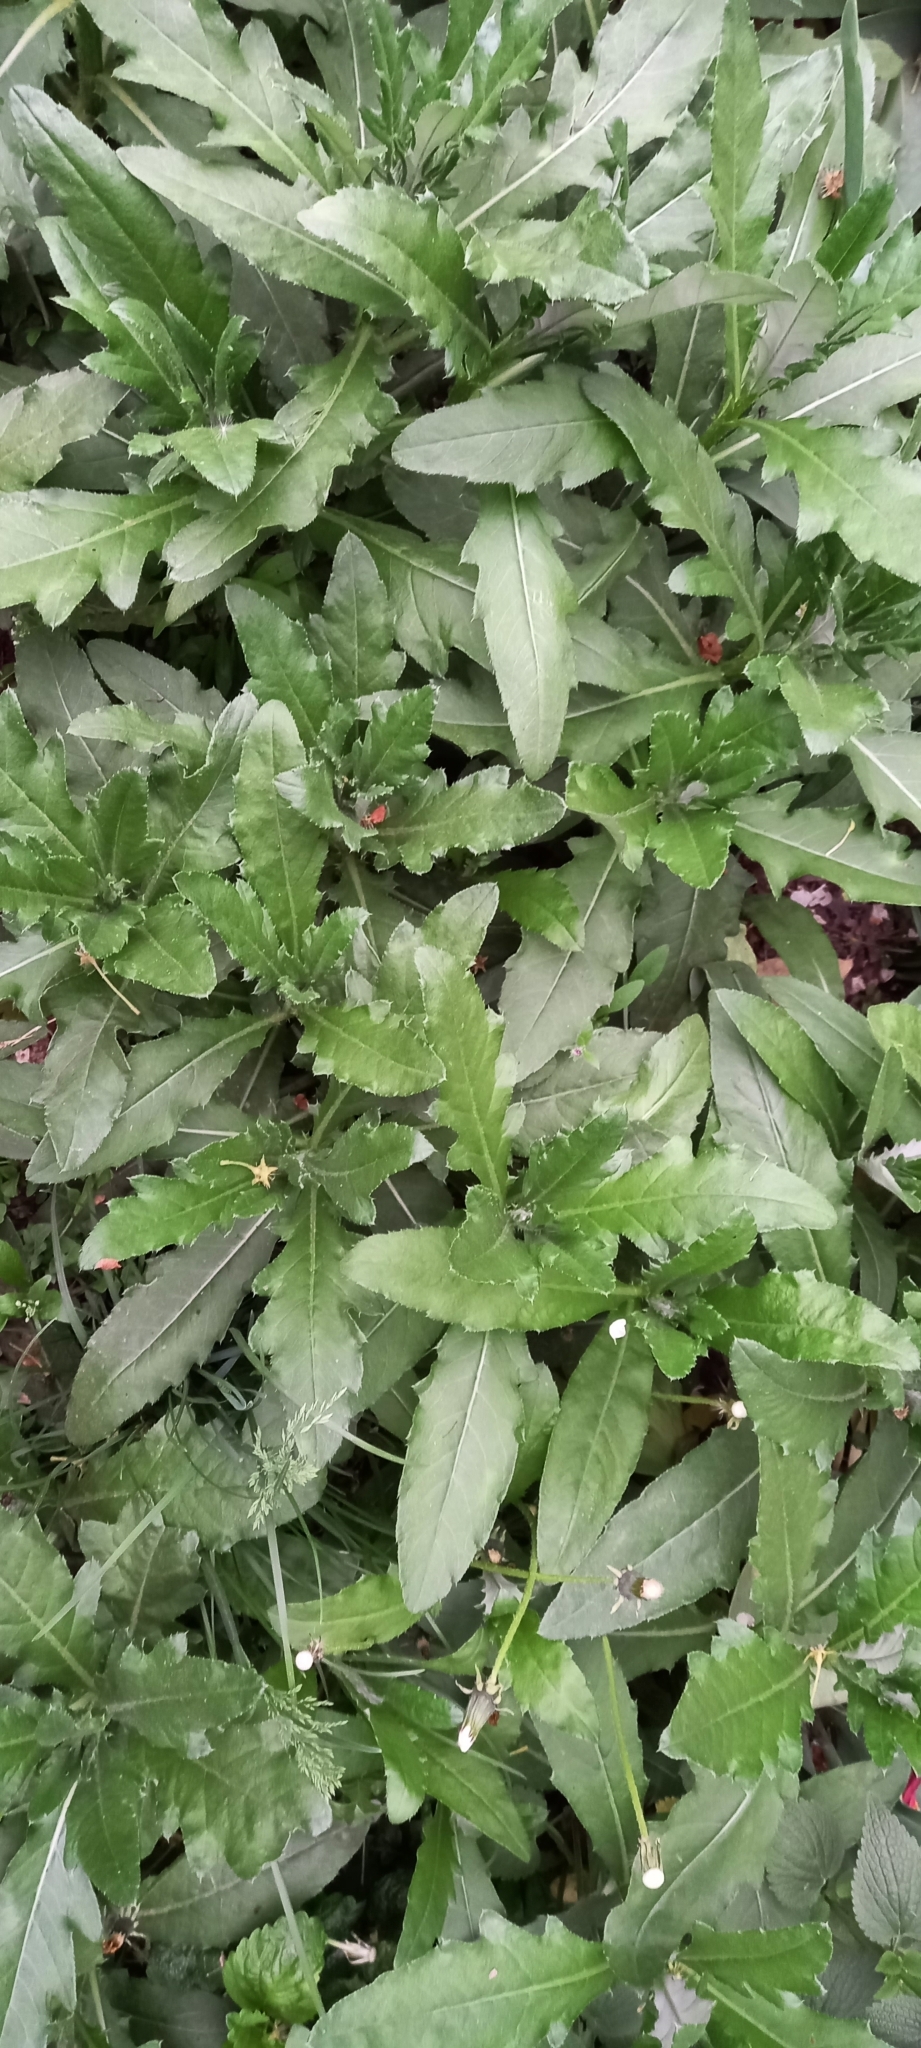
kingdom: Plantae
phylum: Tracheophyta
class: Magnoliopsida
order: Asterales
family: Asteraceae
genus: Cirsium
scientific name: Cirsium arvense
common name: Creeping thistle
